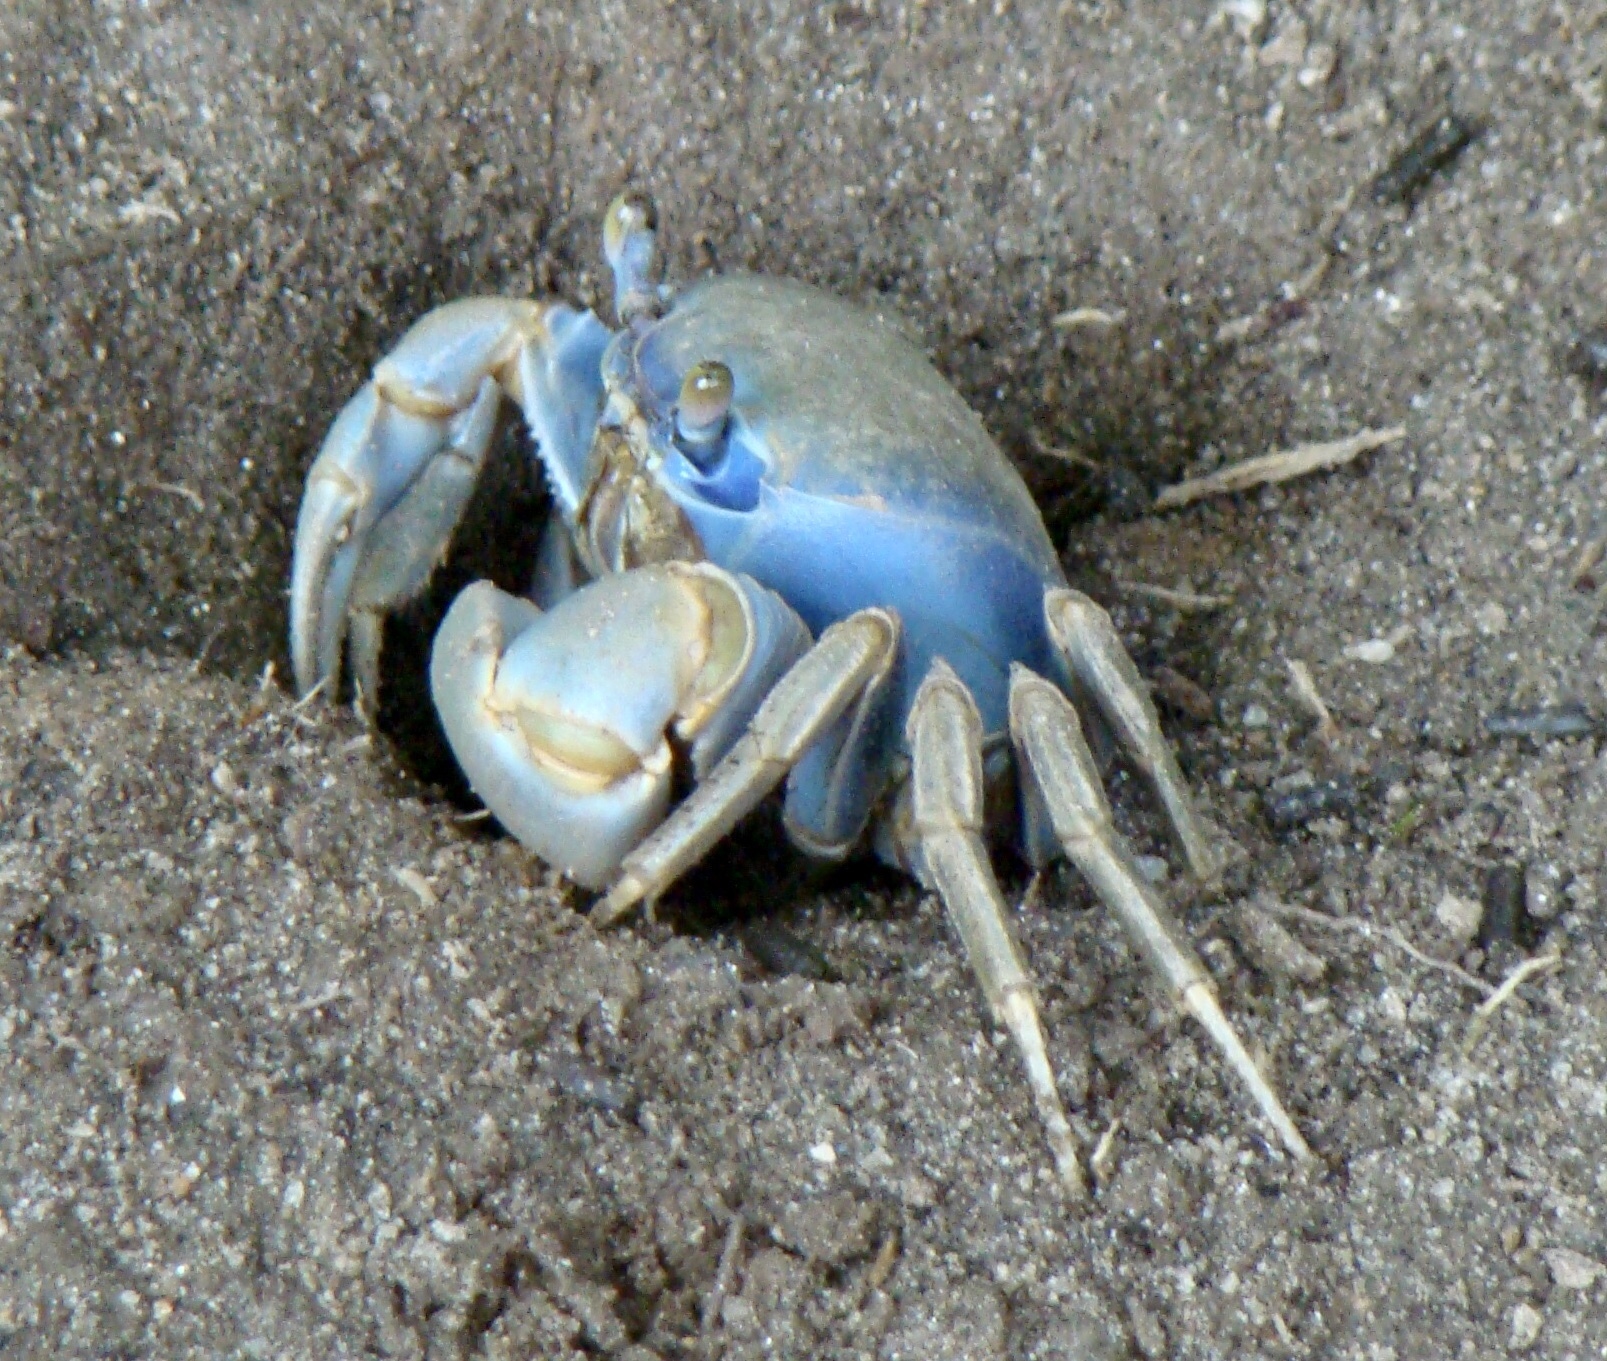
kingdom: Animalia
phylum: Arthropoda
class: Malacostraca
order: Decapoda
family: Gecarcinidae
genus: Cardisoma
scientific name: Cardisoma guanhumi
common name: Great land crab
